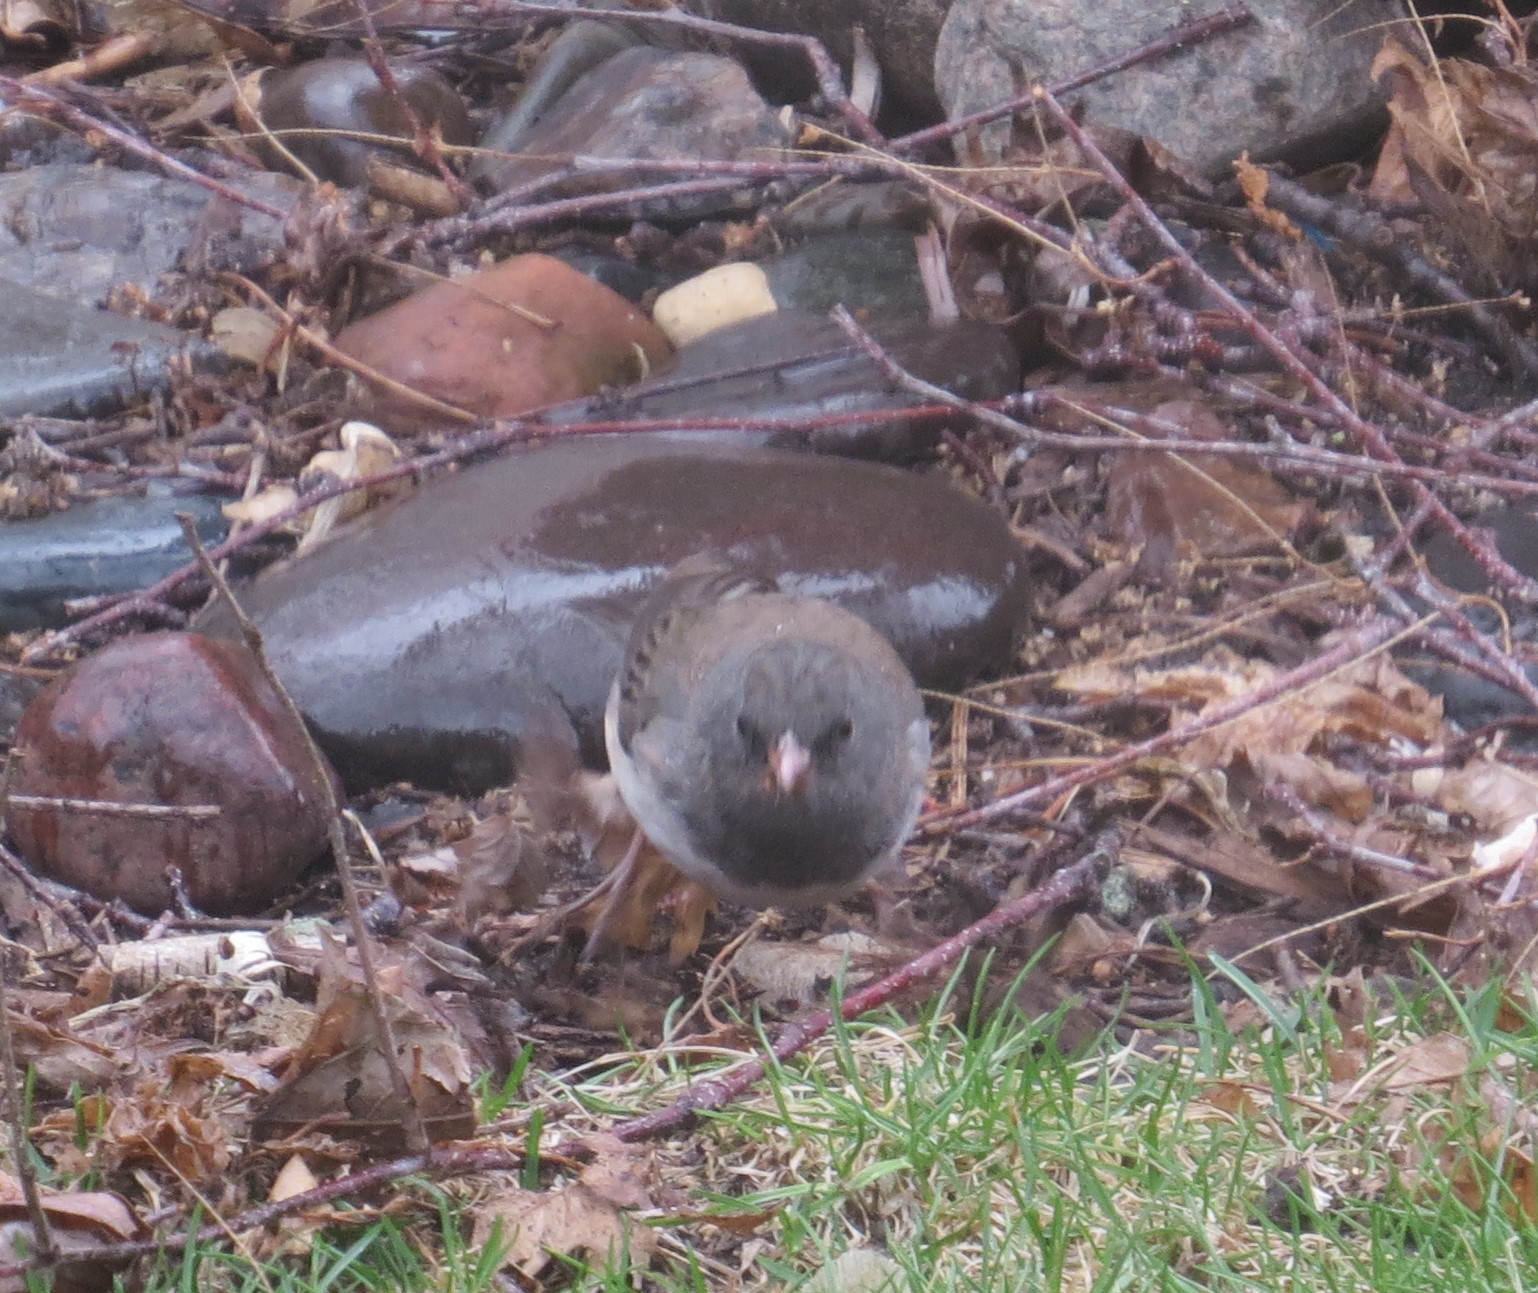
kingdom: Animalia
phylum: Chordata
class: Aves
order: Passeriformes
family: Passerellidae
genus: Junco
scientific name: Junco hyemalis
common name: Dark-eyed junco
